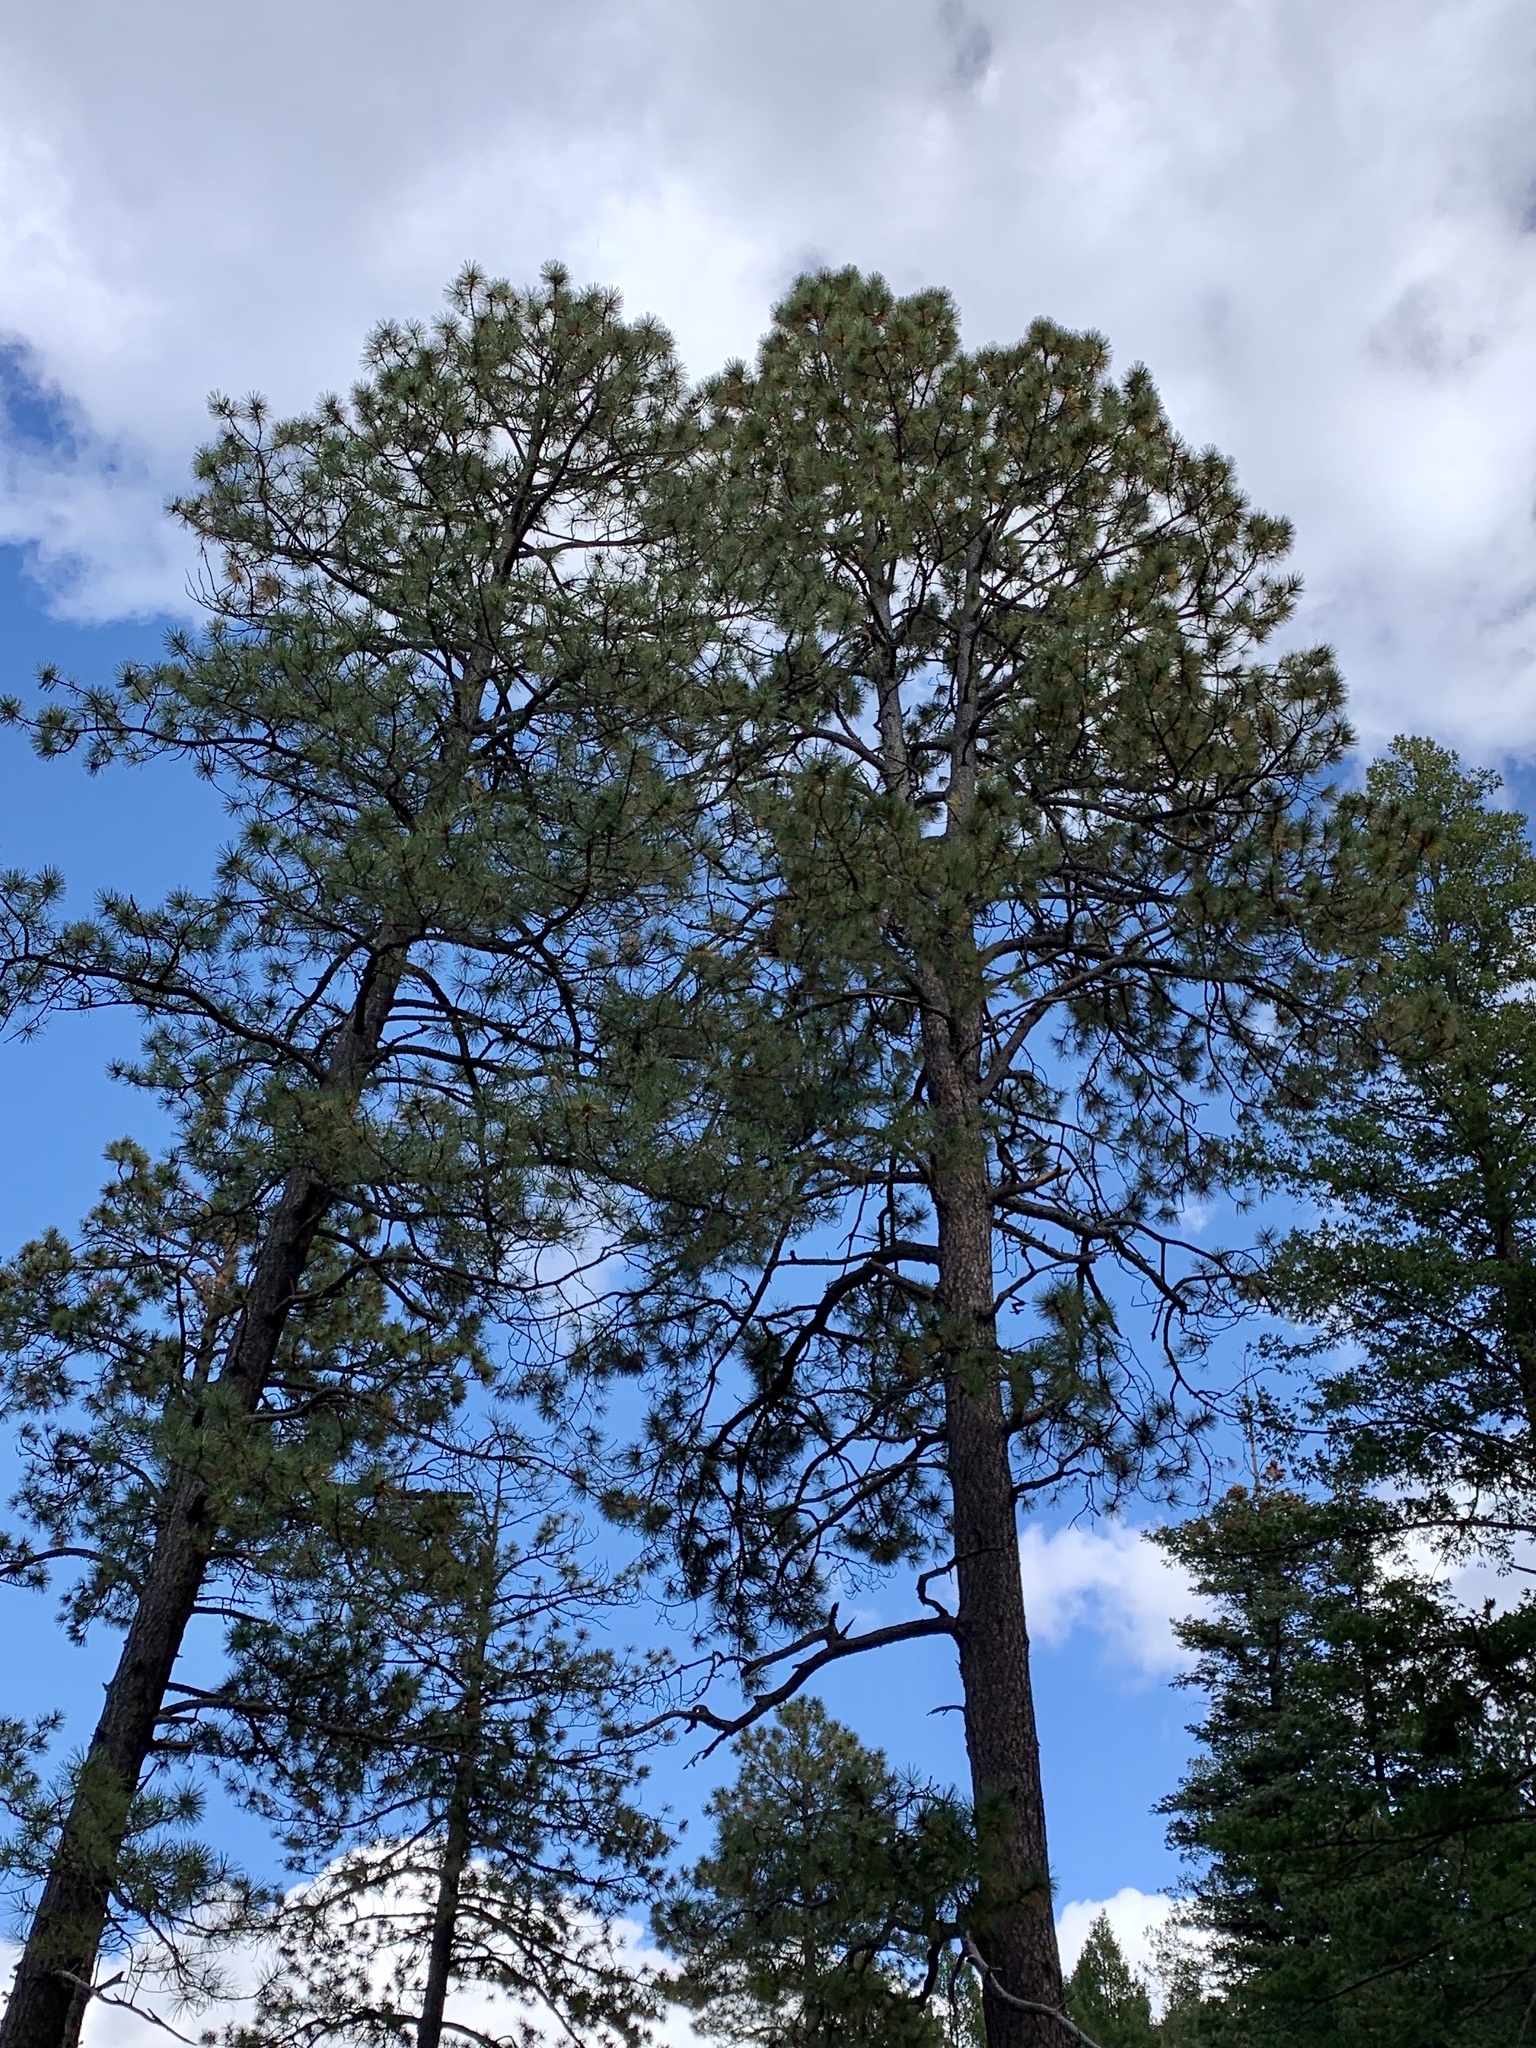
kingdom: Plantae
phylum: Tracheophyta
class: Pinopsida
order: Pinales
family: Pinaceae
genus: Pinus
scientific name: Pinus ponderosa
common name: Western yellow-pine
